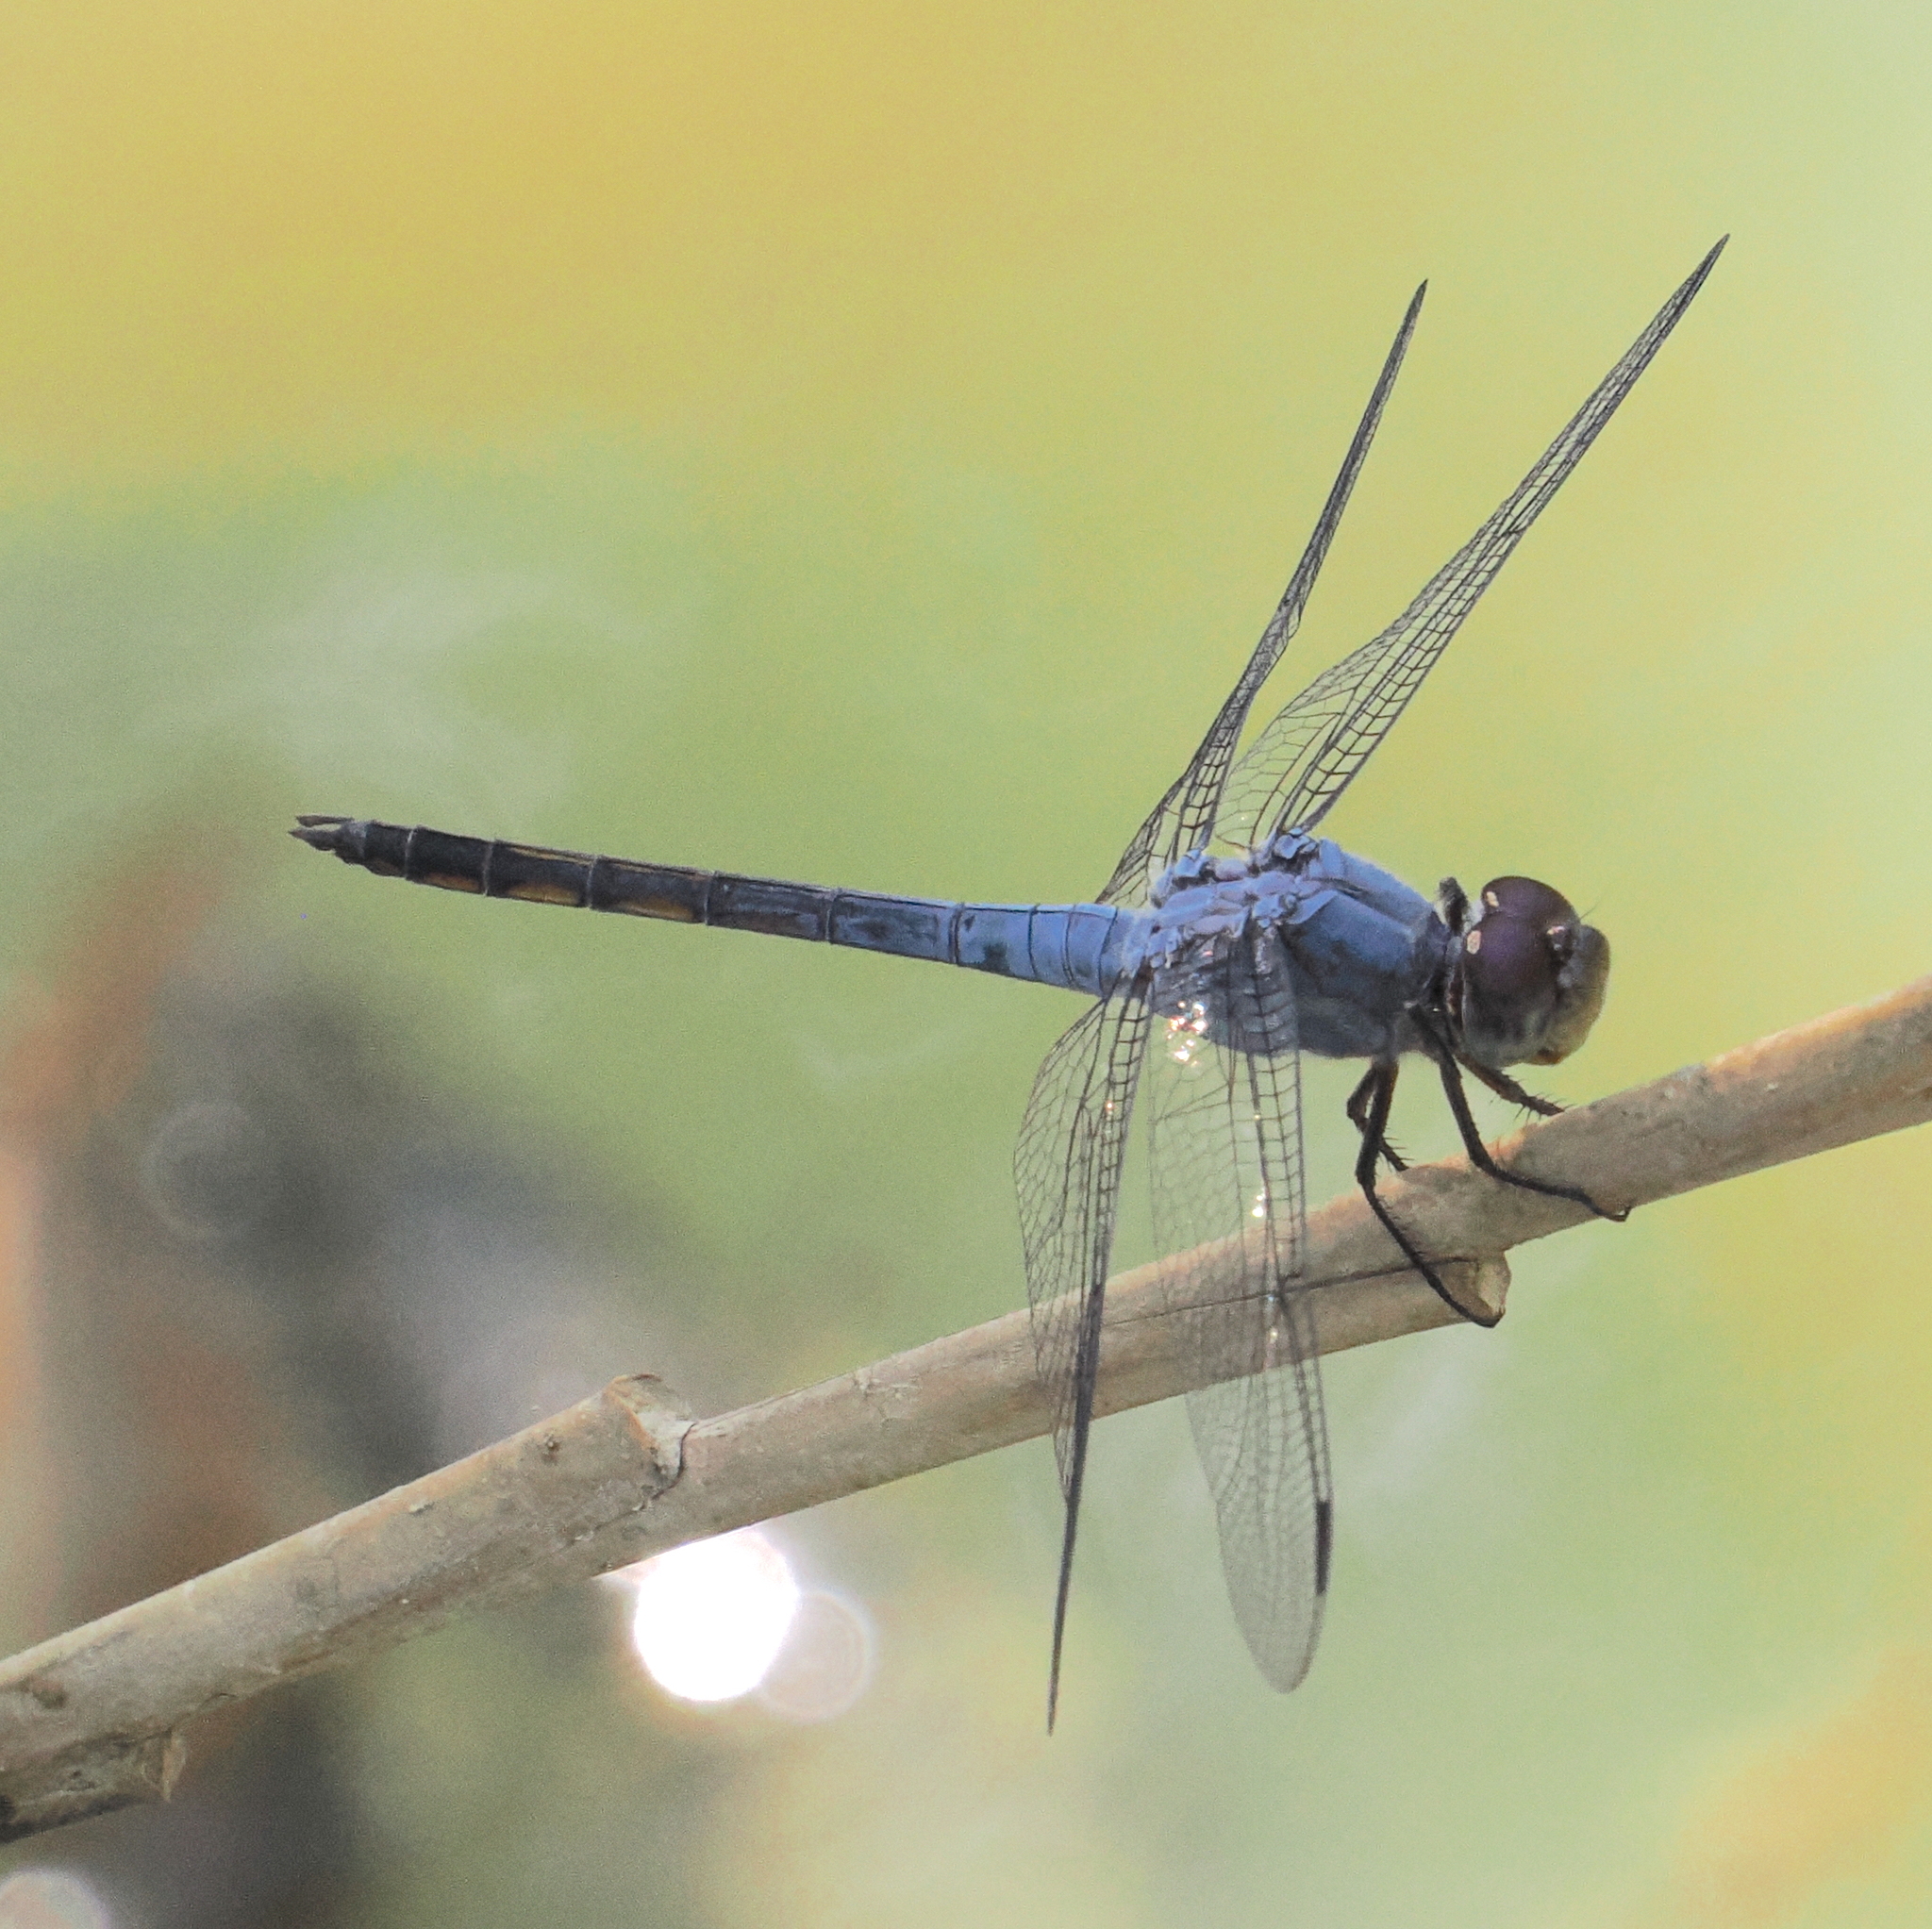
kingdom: Animalia
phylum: Arthropoda
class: Insecta
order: Odonata
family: Libellulidae
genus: Potamarcha
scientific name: Potamarcha congener
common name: Blue chaser
